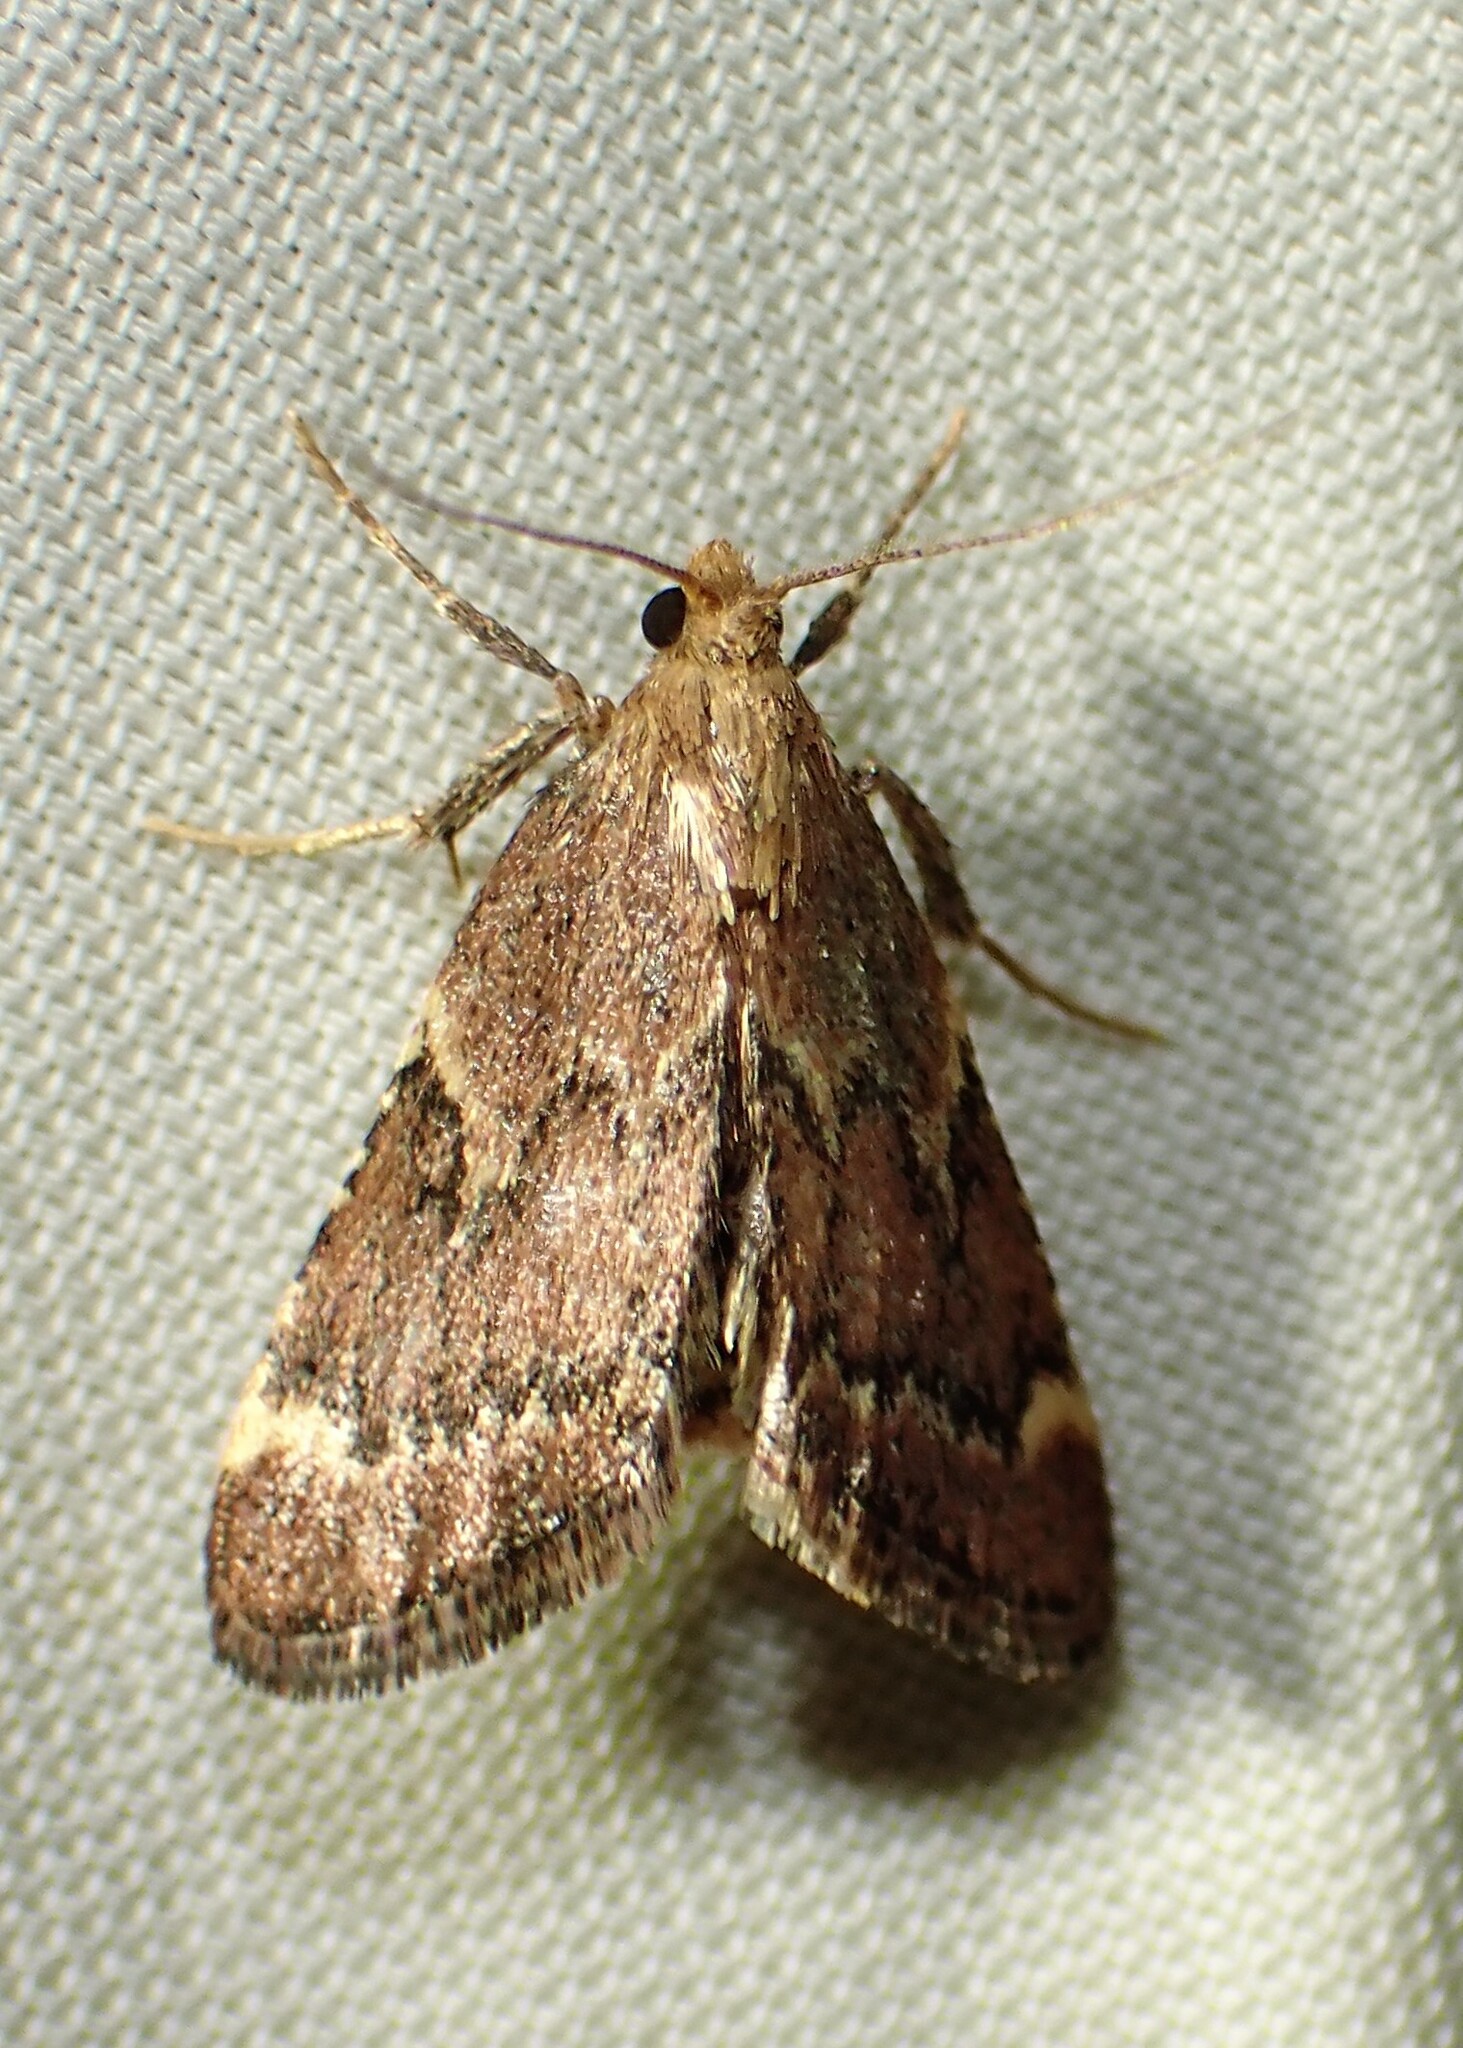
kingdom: Animalia
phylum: Arthropoda
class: Insecta
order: Lepidoptera
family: Pyralidae
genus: Hypsopygia
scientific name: Hypsopygia intermedialis
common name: Red-shawled moth
